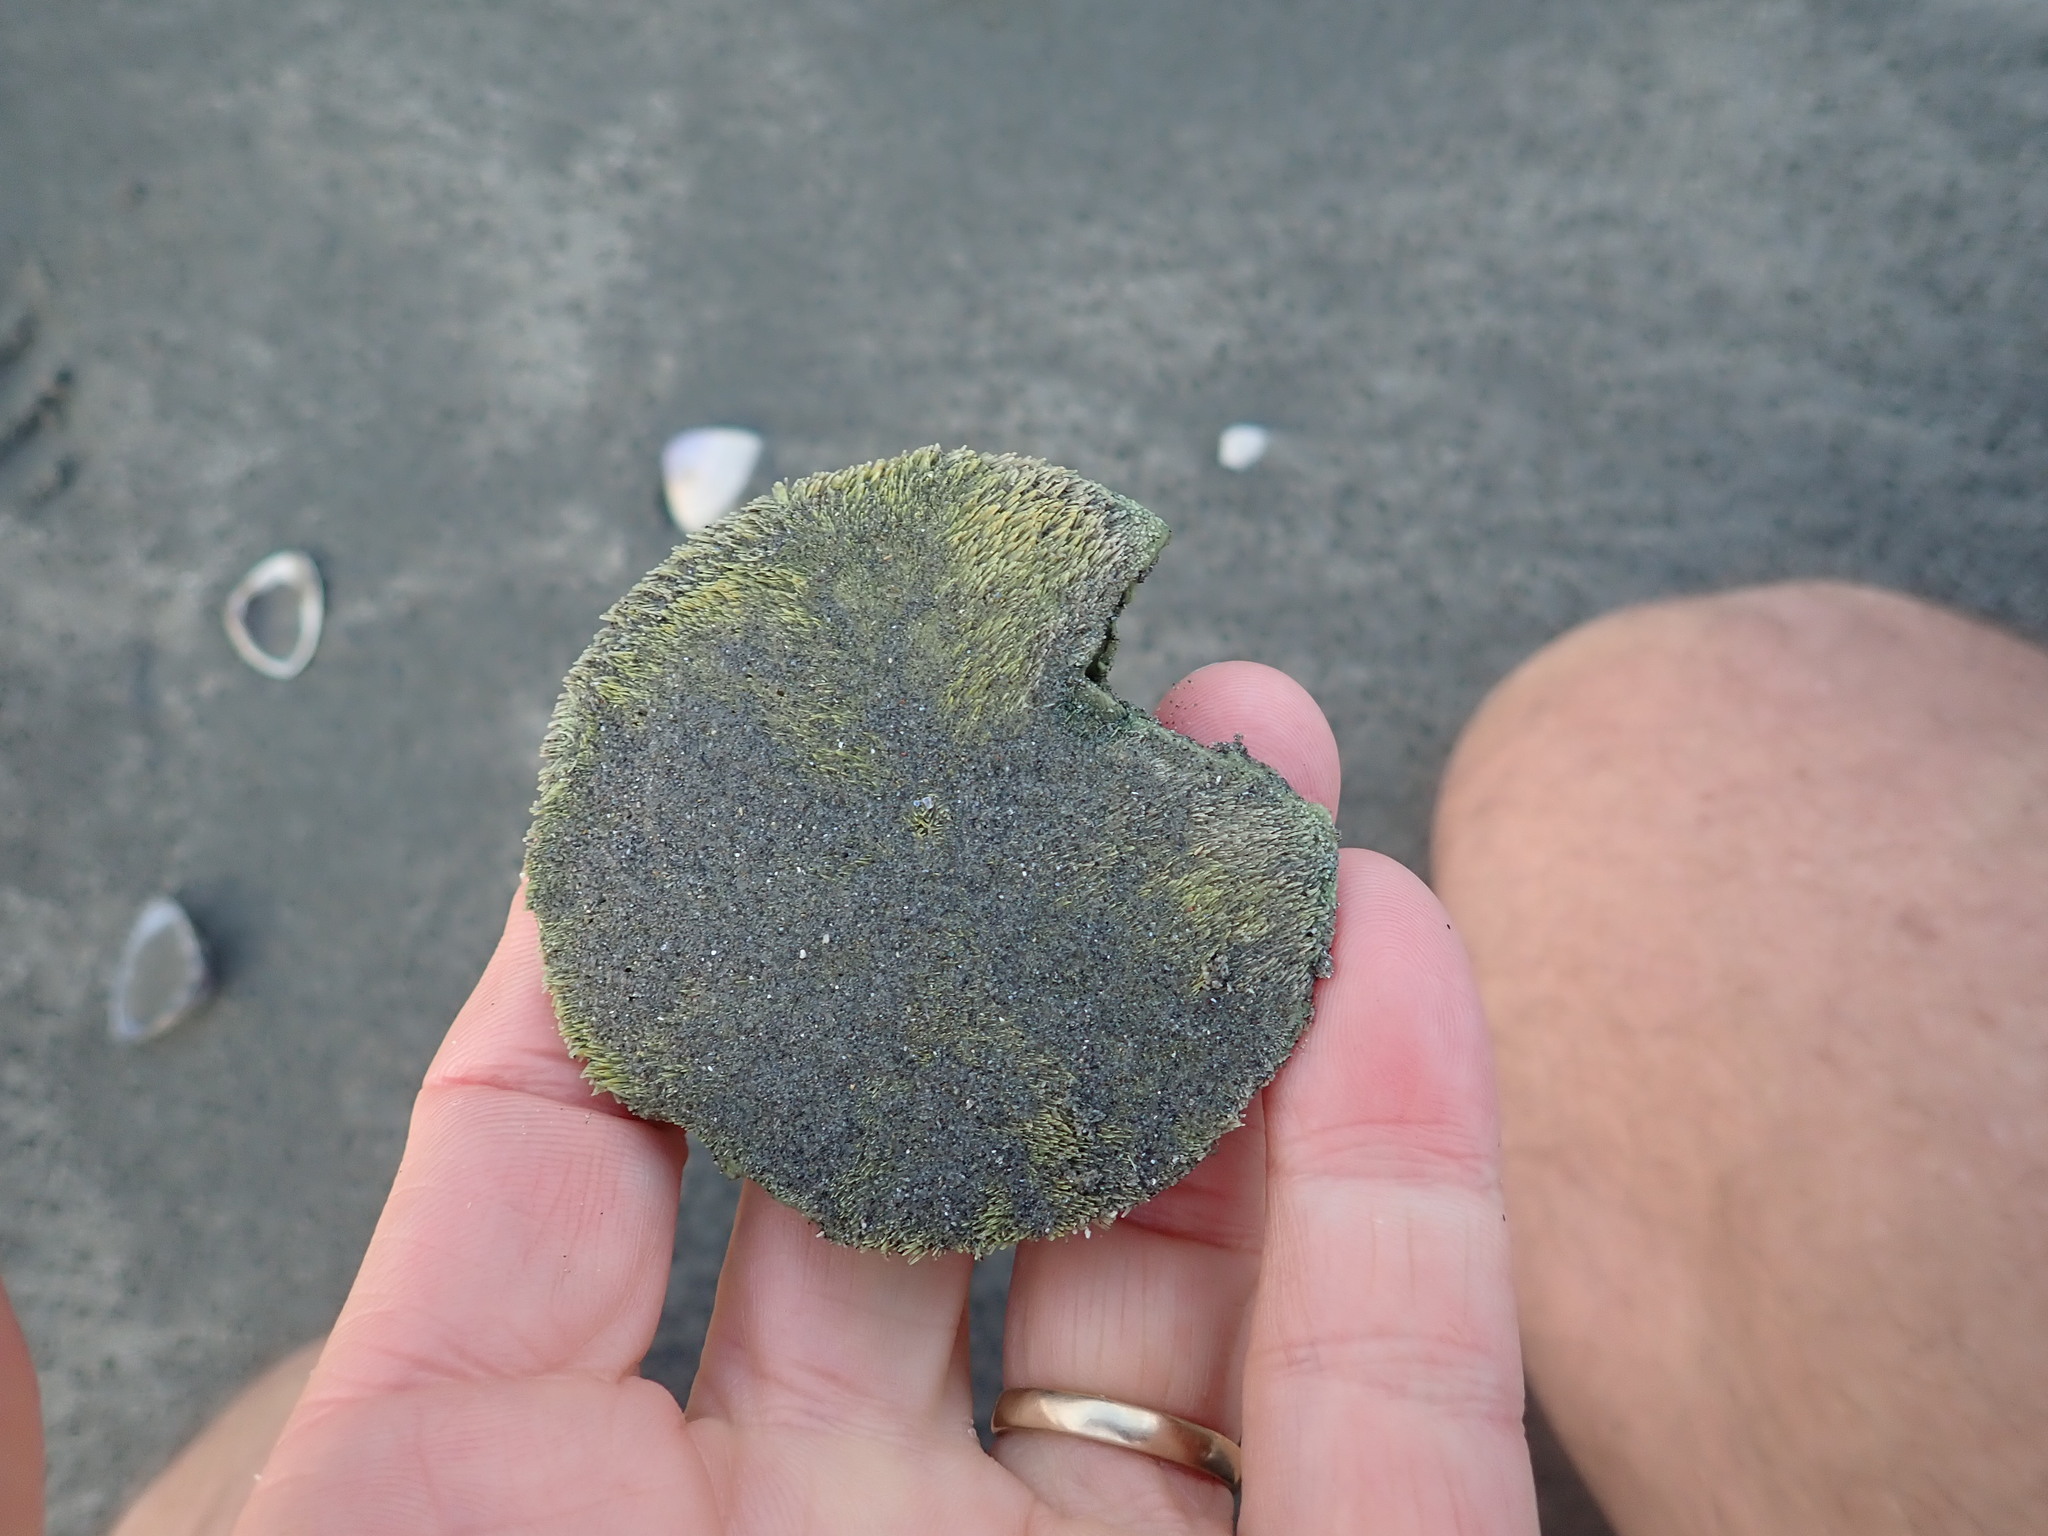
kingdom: Animalia
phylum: Echinodermata
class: Echinoidea
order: Clypeasteroida
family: Clypeasteridae
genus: Fellaster
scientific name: Fellaster zelandiae
